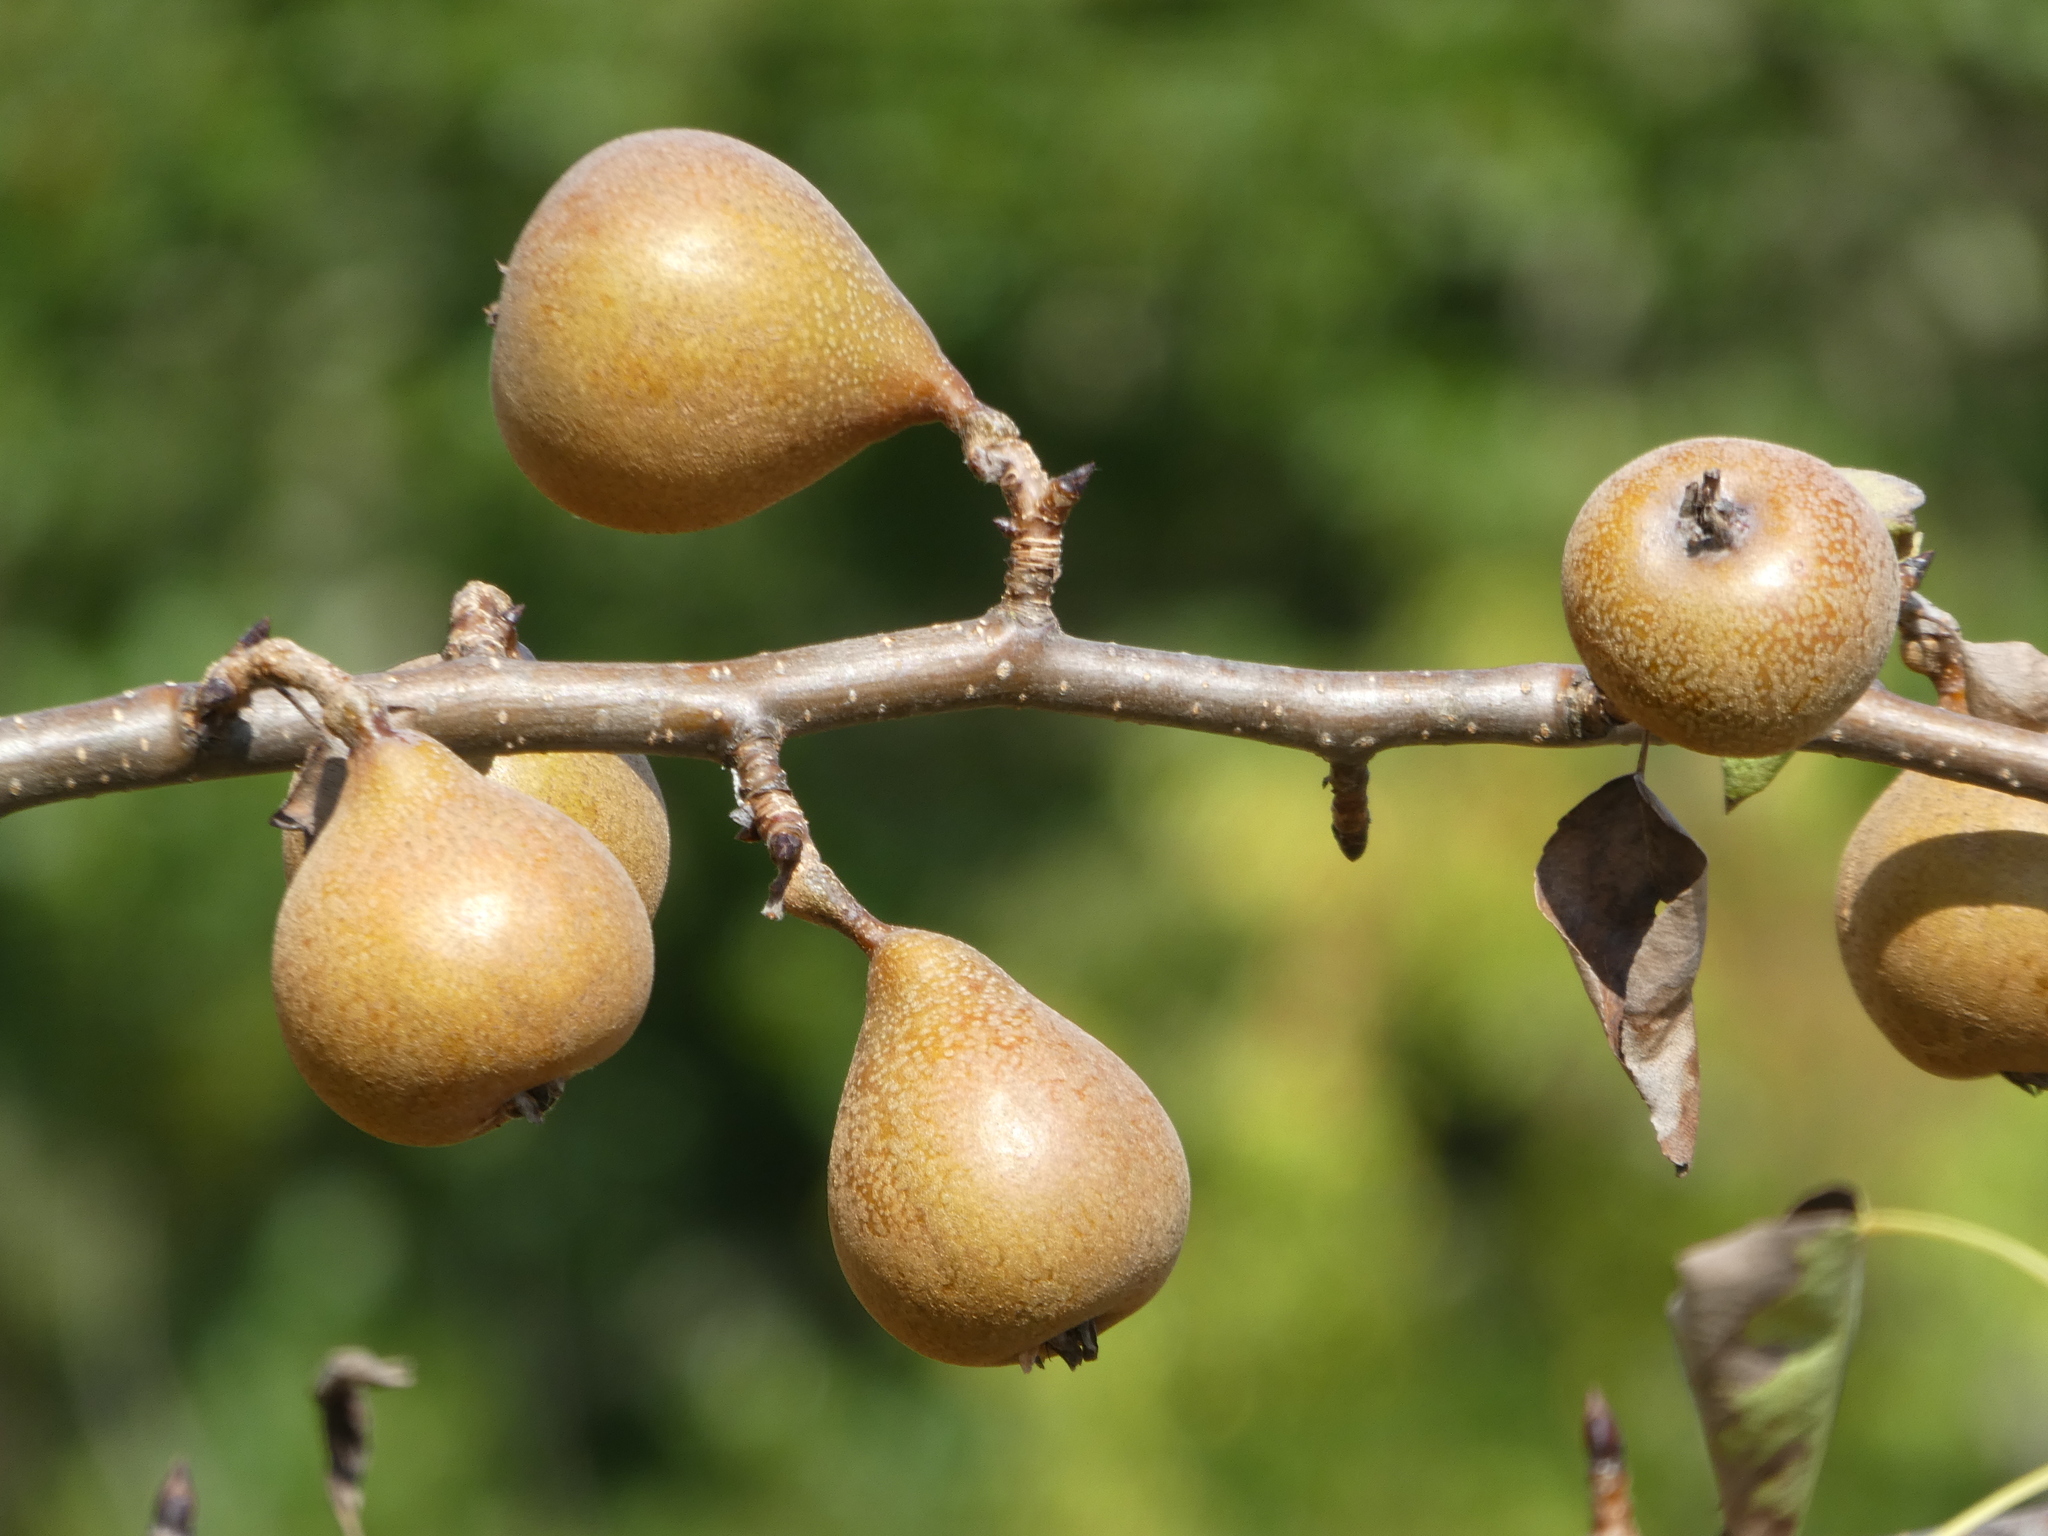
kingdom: Plantae
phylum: Tracheophyta
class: Magnoliopsida
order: Rosales
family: Rosaceae
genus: Pyrus
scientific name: Pyrus communis
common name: Pear
